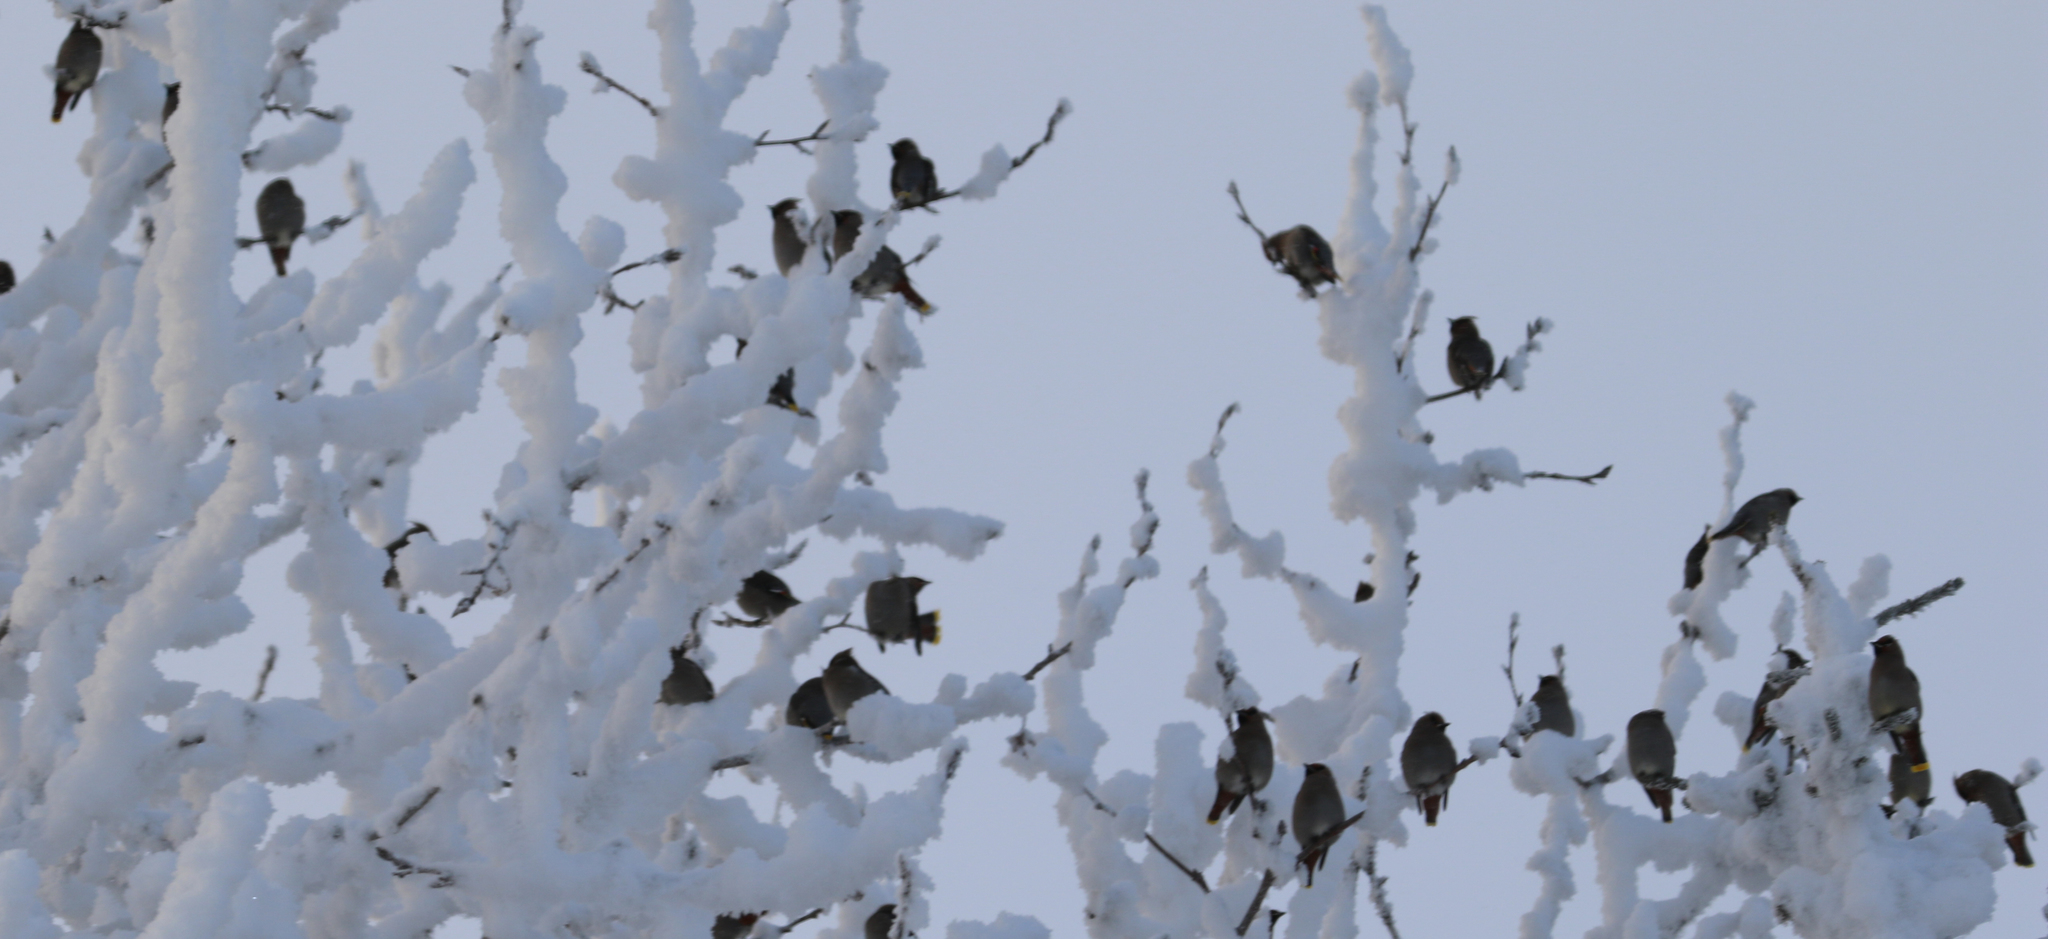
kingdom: Animalia
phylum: Chordata
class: Aves
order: Passeriformes
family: Bombycillidae
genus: Bombycilla
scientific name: Bombycilla garrulus
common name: Bohemian waxwing
